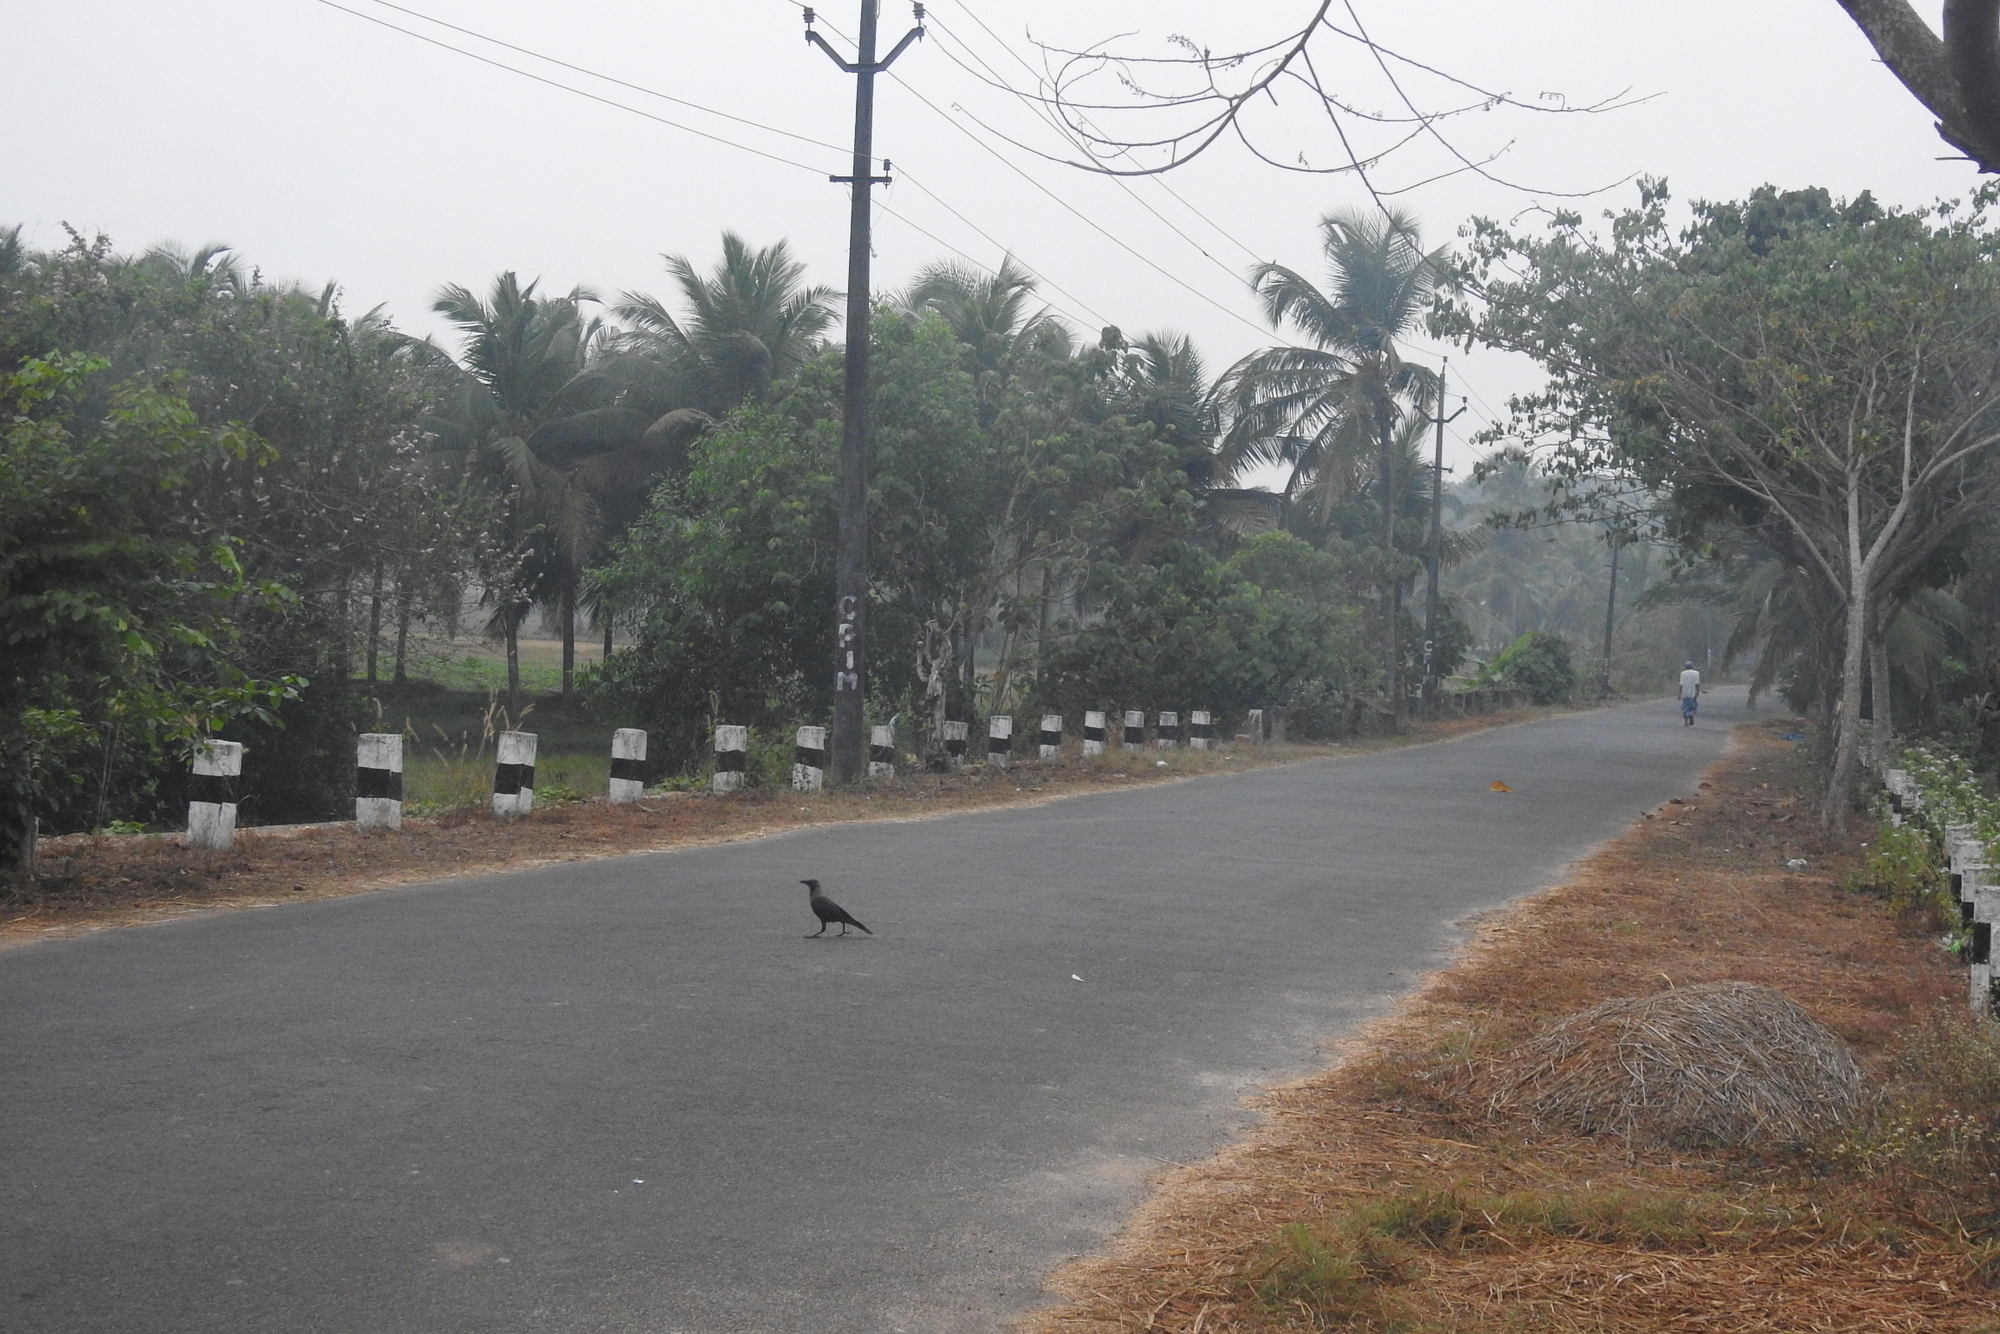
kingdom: Animalia
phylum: Chordata
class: Aves
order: Passeriformes
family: Corvidae
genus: Corvus
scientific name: Corvus splendens
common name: House crow
